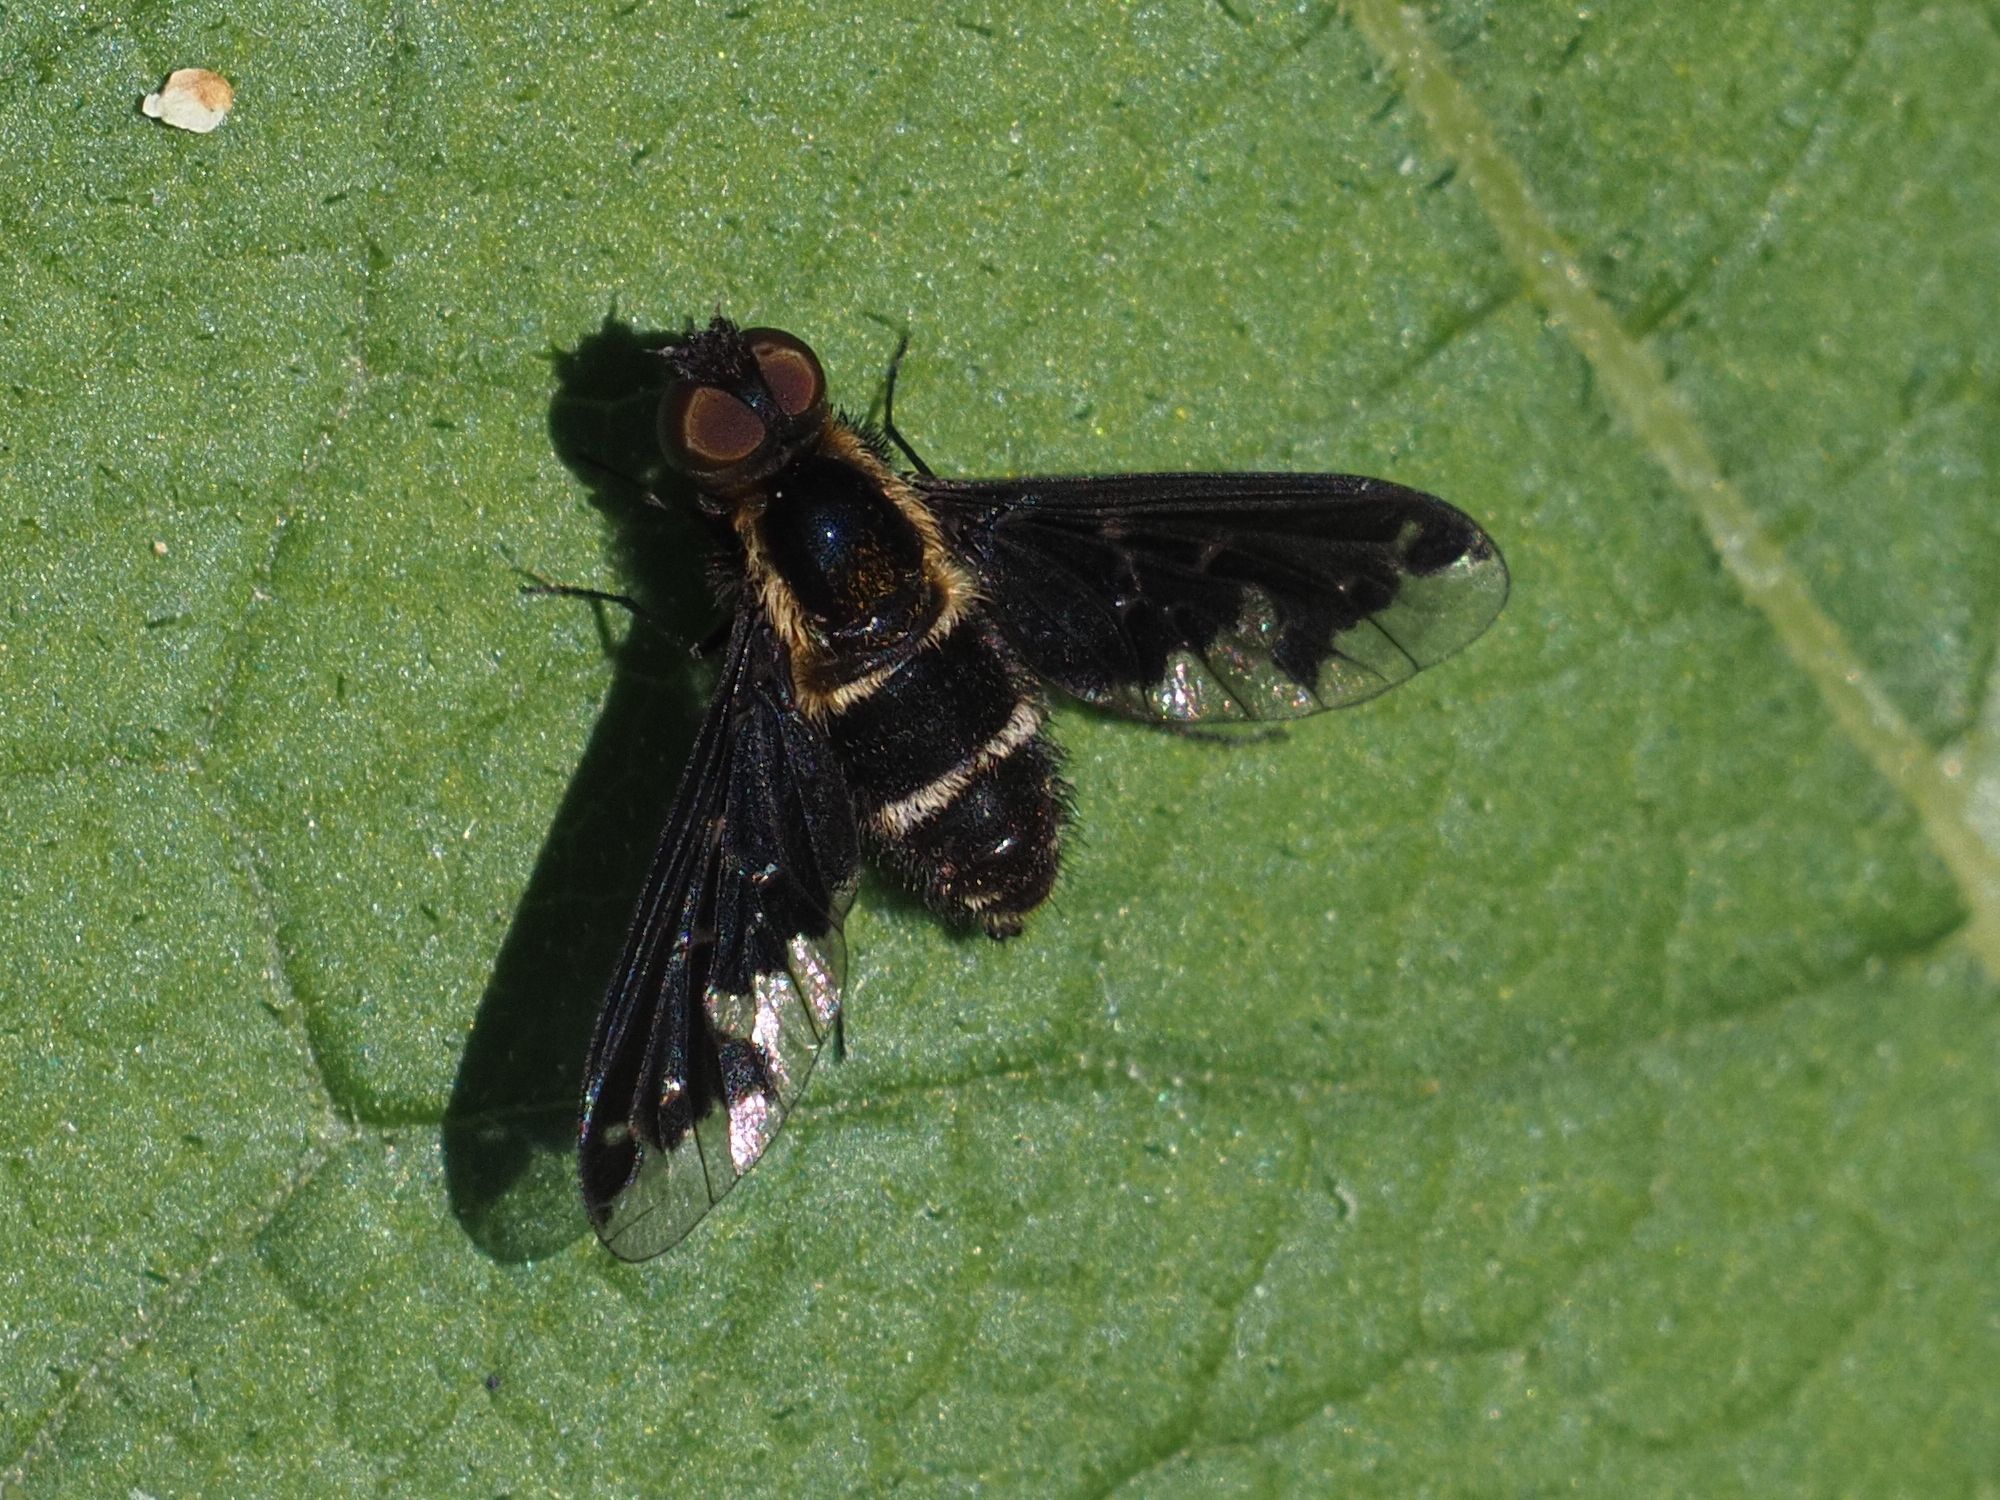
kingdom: Animalia
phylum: Arthropoda
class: Insecta
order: Diptera
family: Bombyliidae
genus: Hemipenthes
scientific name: Hemipenthes maura
